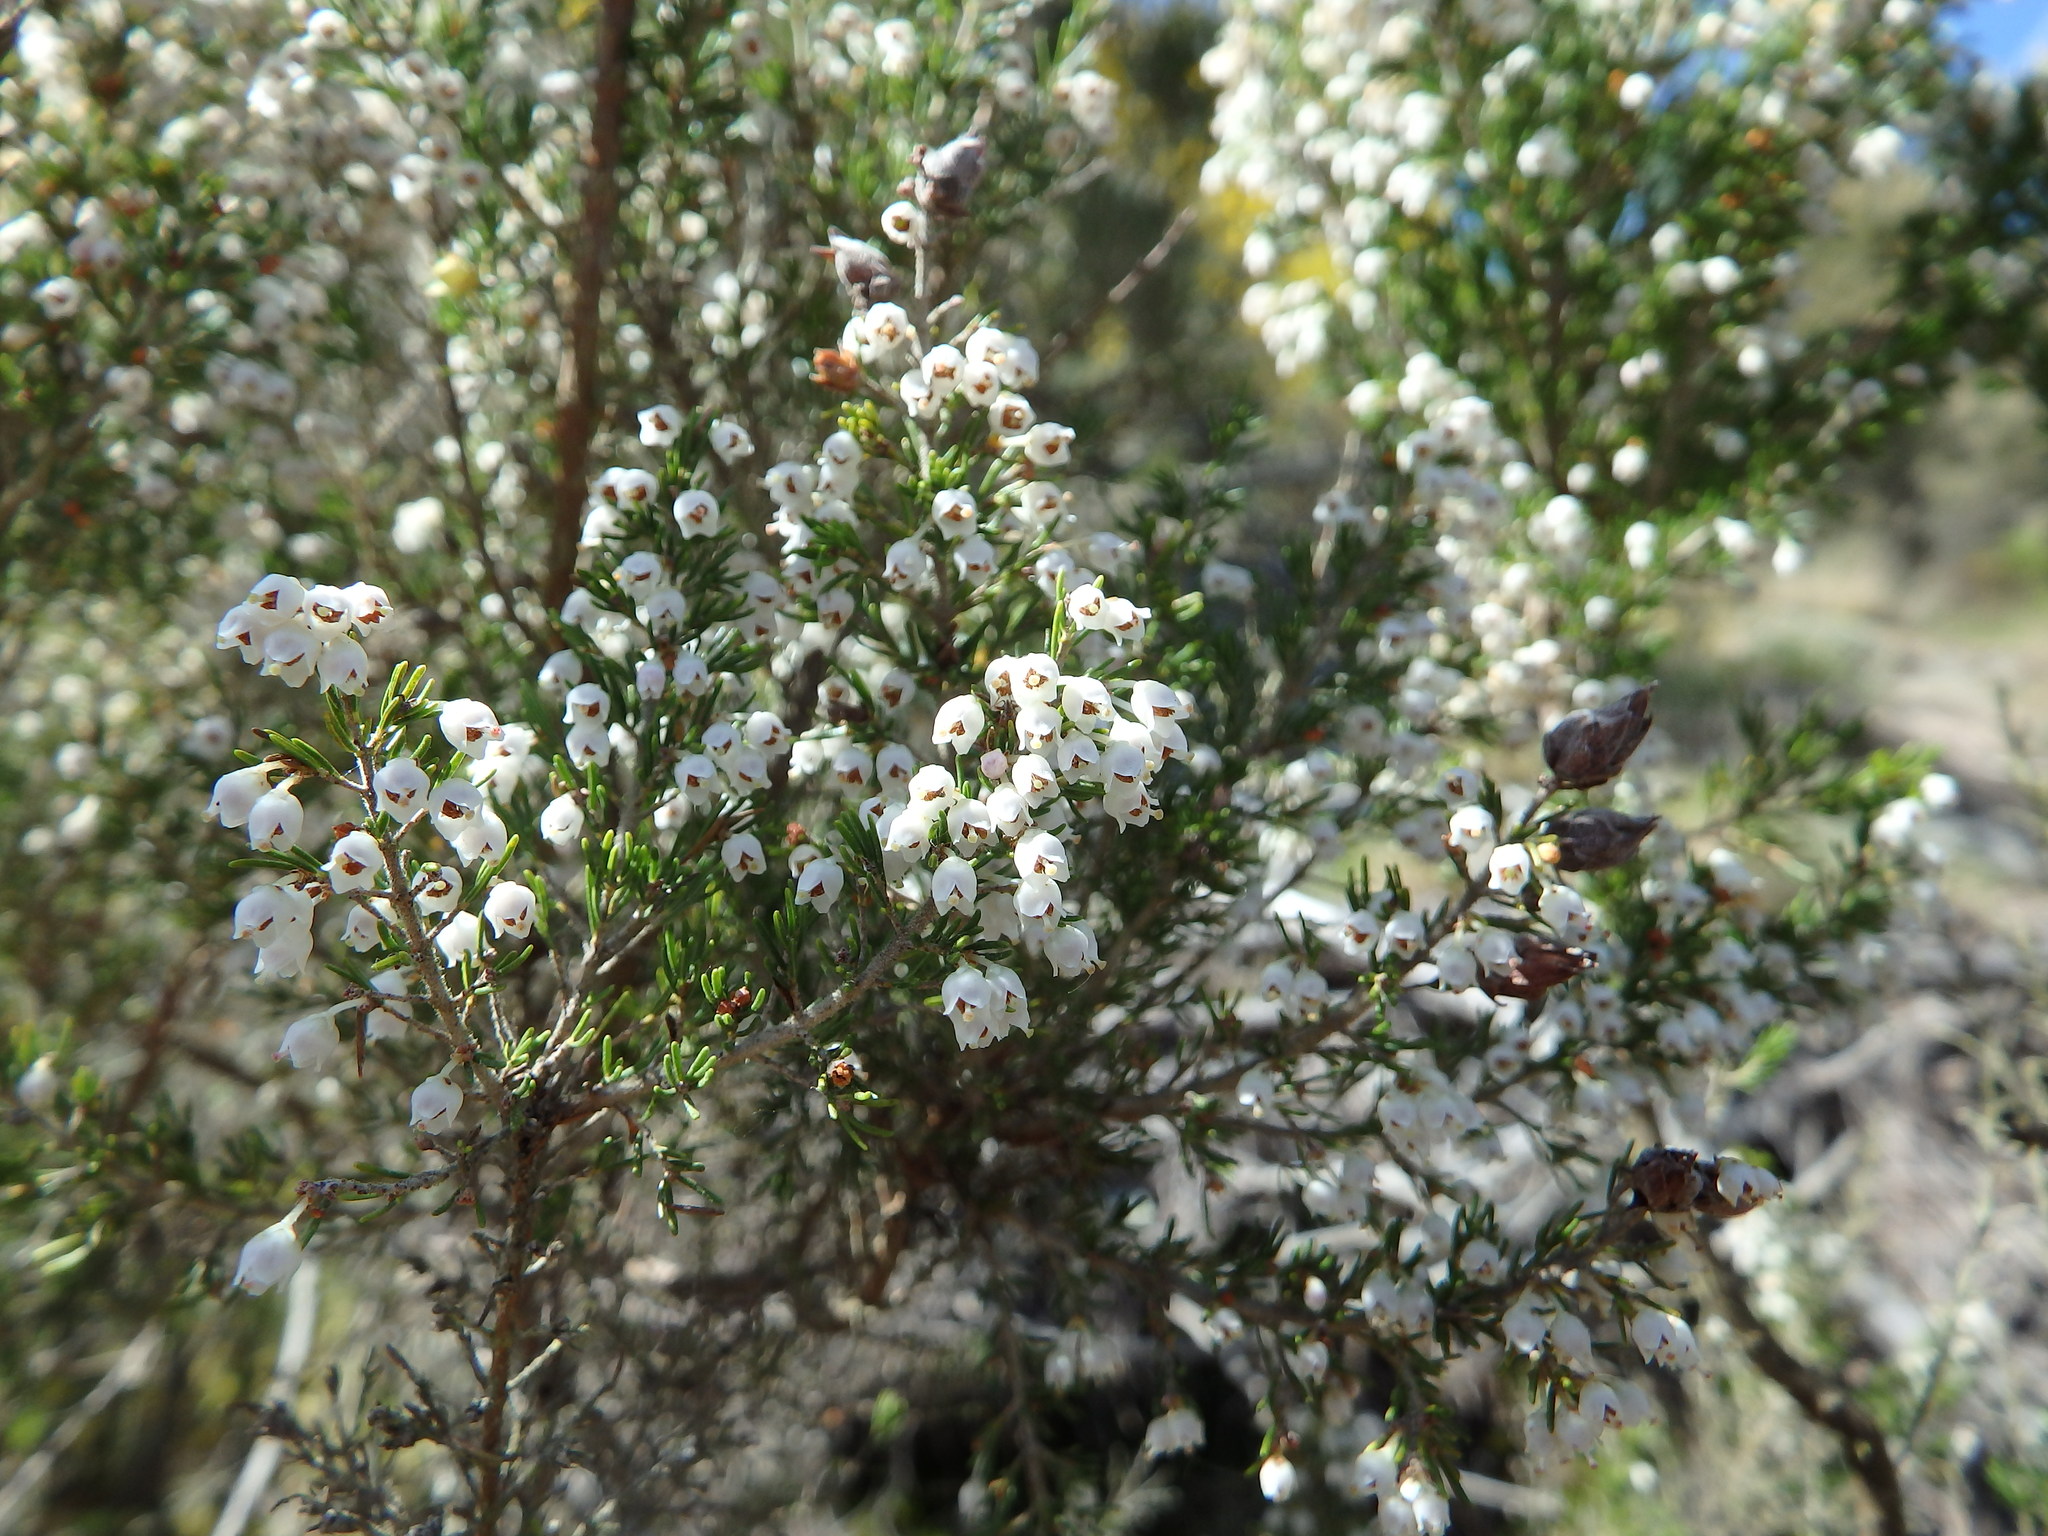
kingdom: Plantae
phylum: Tracheophyta
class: Magnoliopsida
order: Ericales
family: Ericaceae
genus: Erica
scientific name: Erica arborea
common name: Tree heath
